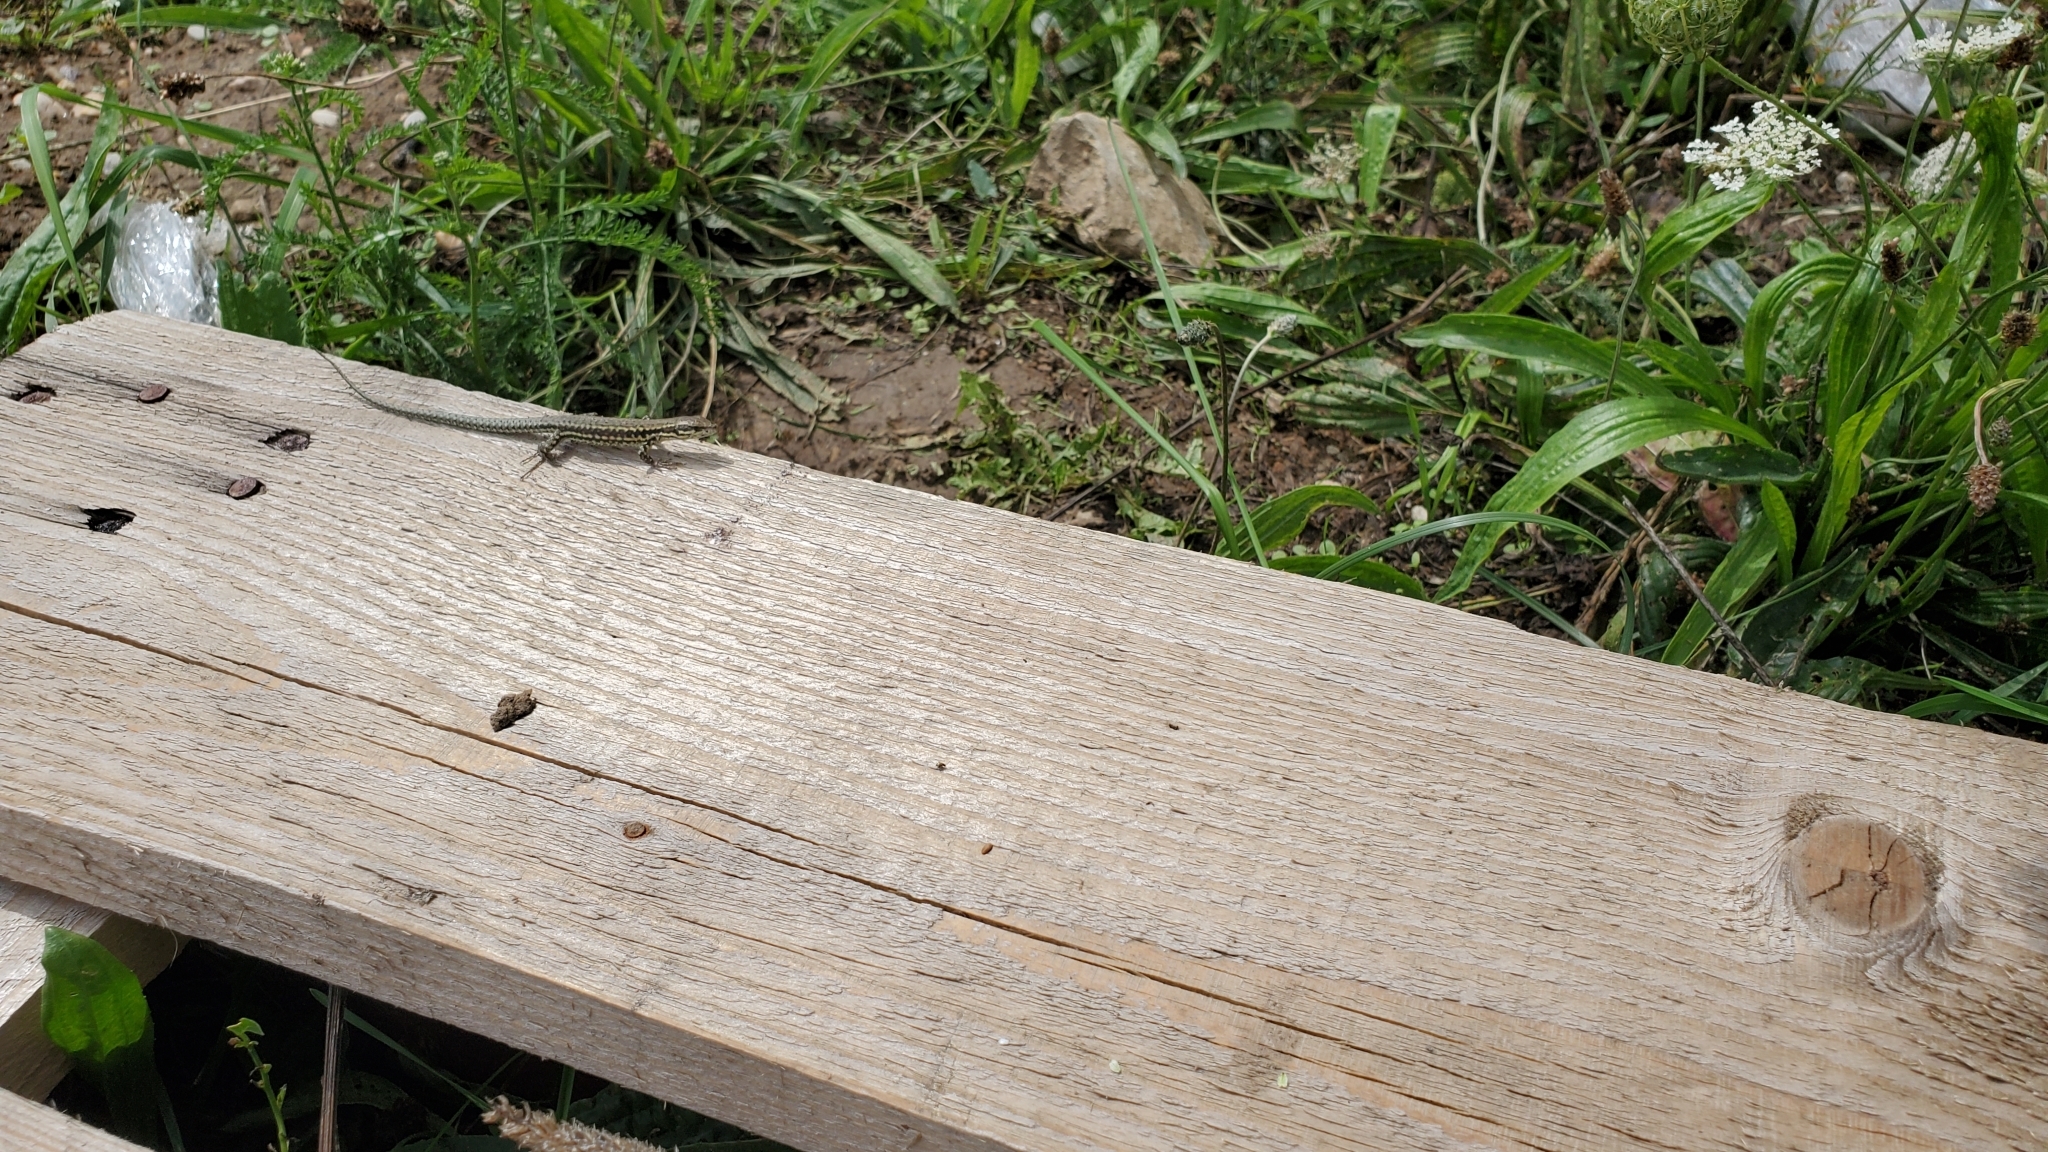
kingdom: Animalia
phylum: Chordata
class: Squamata
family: Lacertidae
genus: Podarcis
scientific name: Podarcis muralis
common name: Common wall lizard
